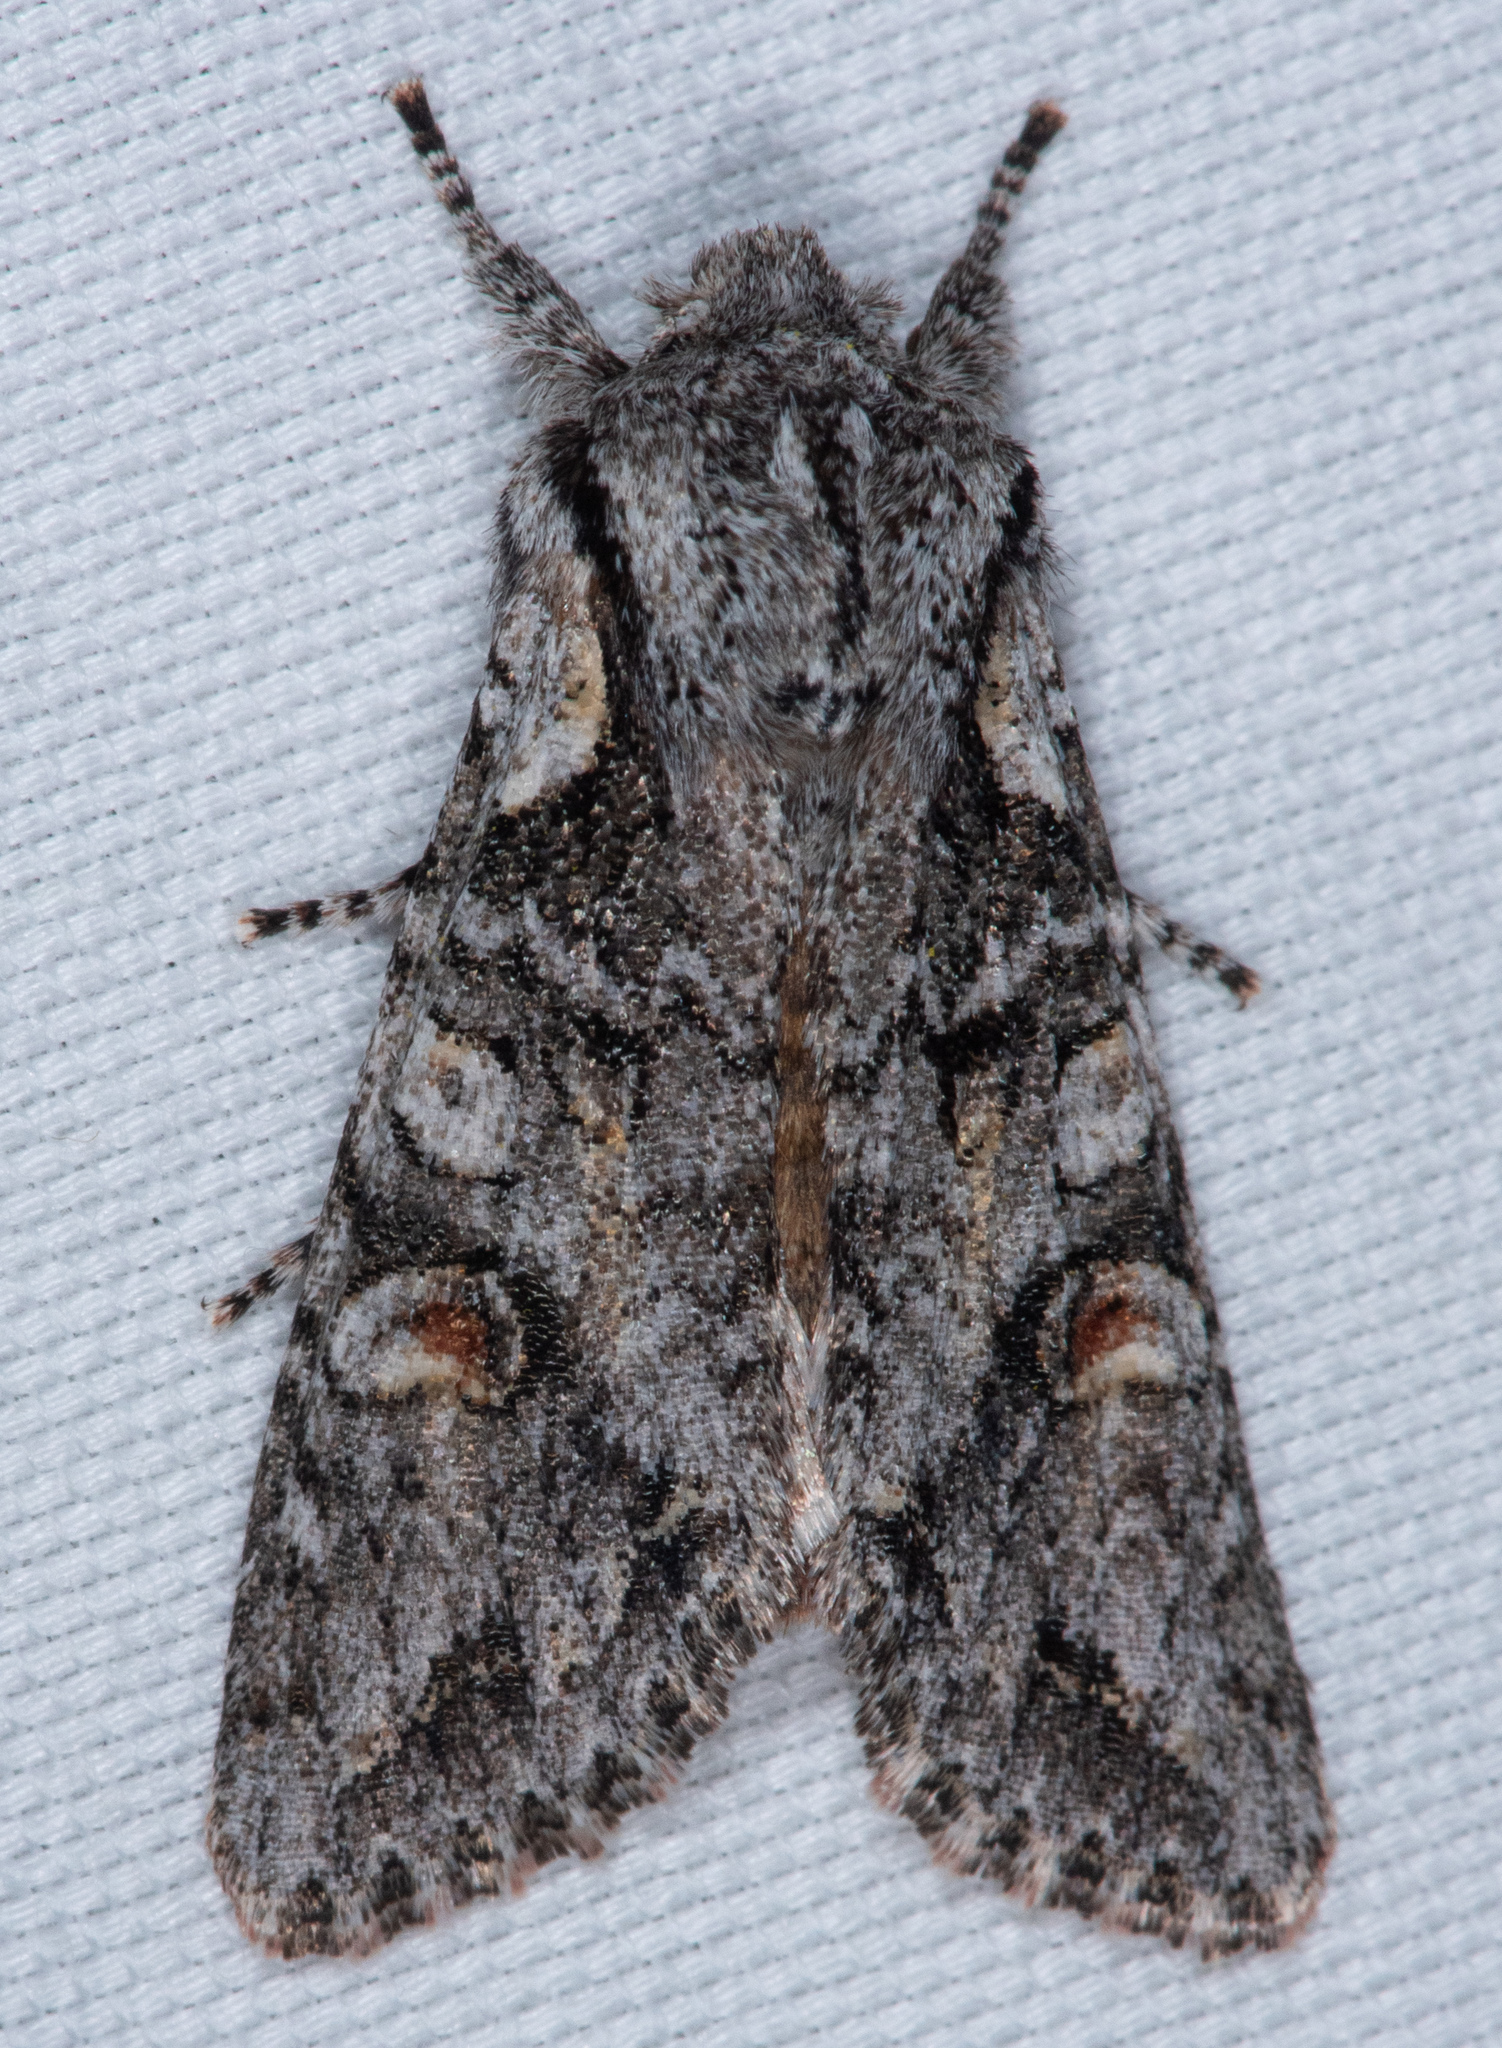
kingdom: Animalia
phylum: Arthropoda
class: Insecta
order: Lepidoptera
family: Noctuidae
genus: Egira
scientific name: Egira hiemalis
